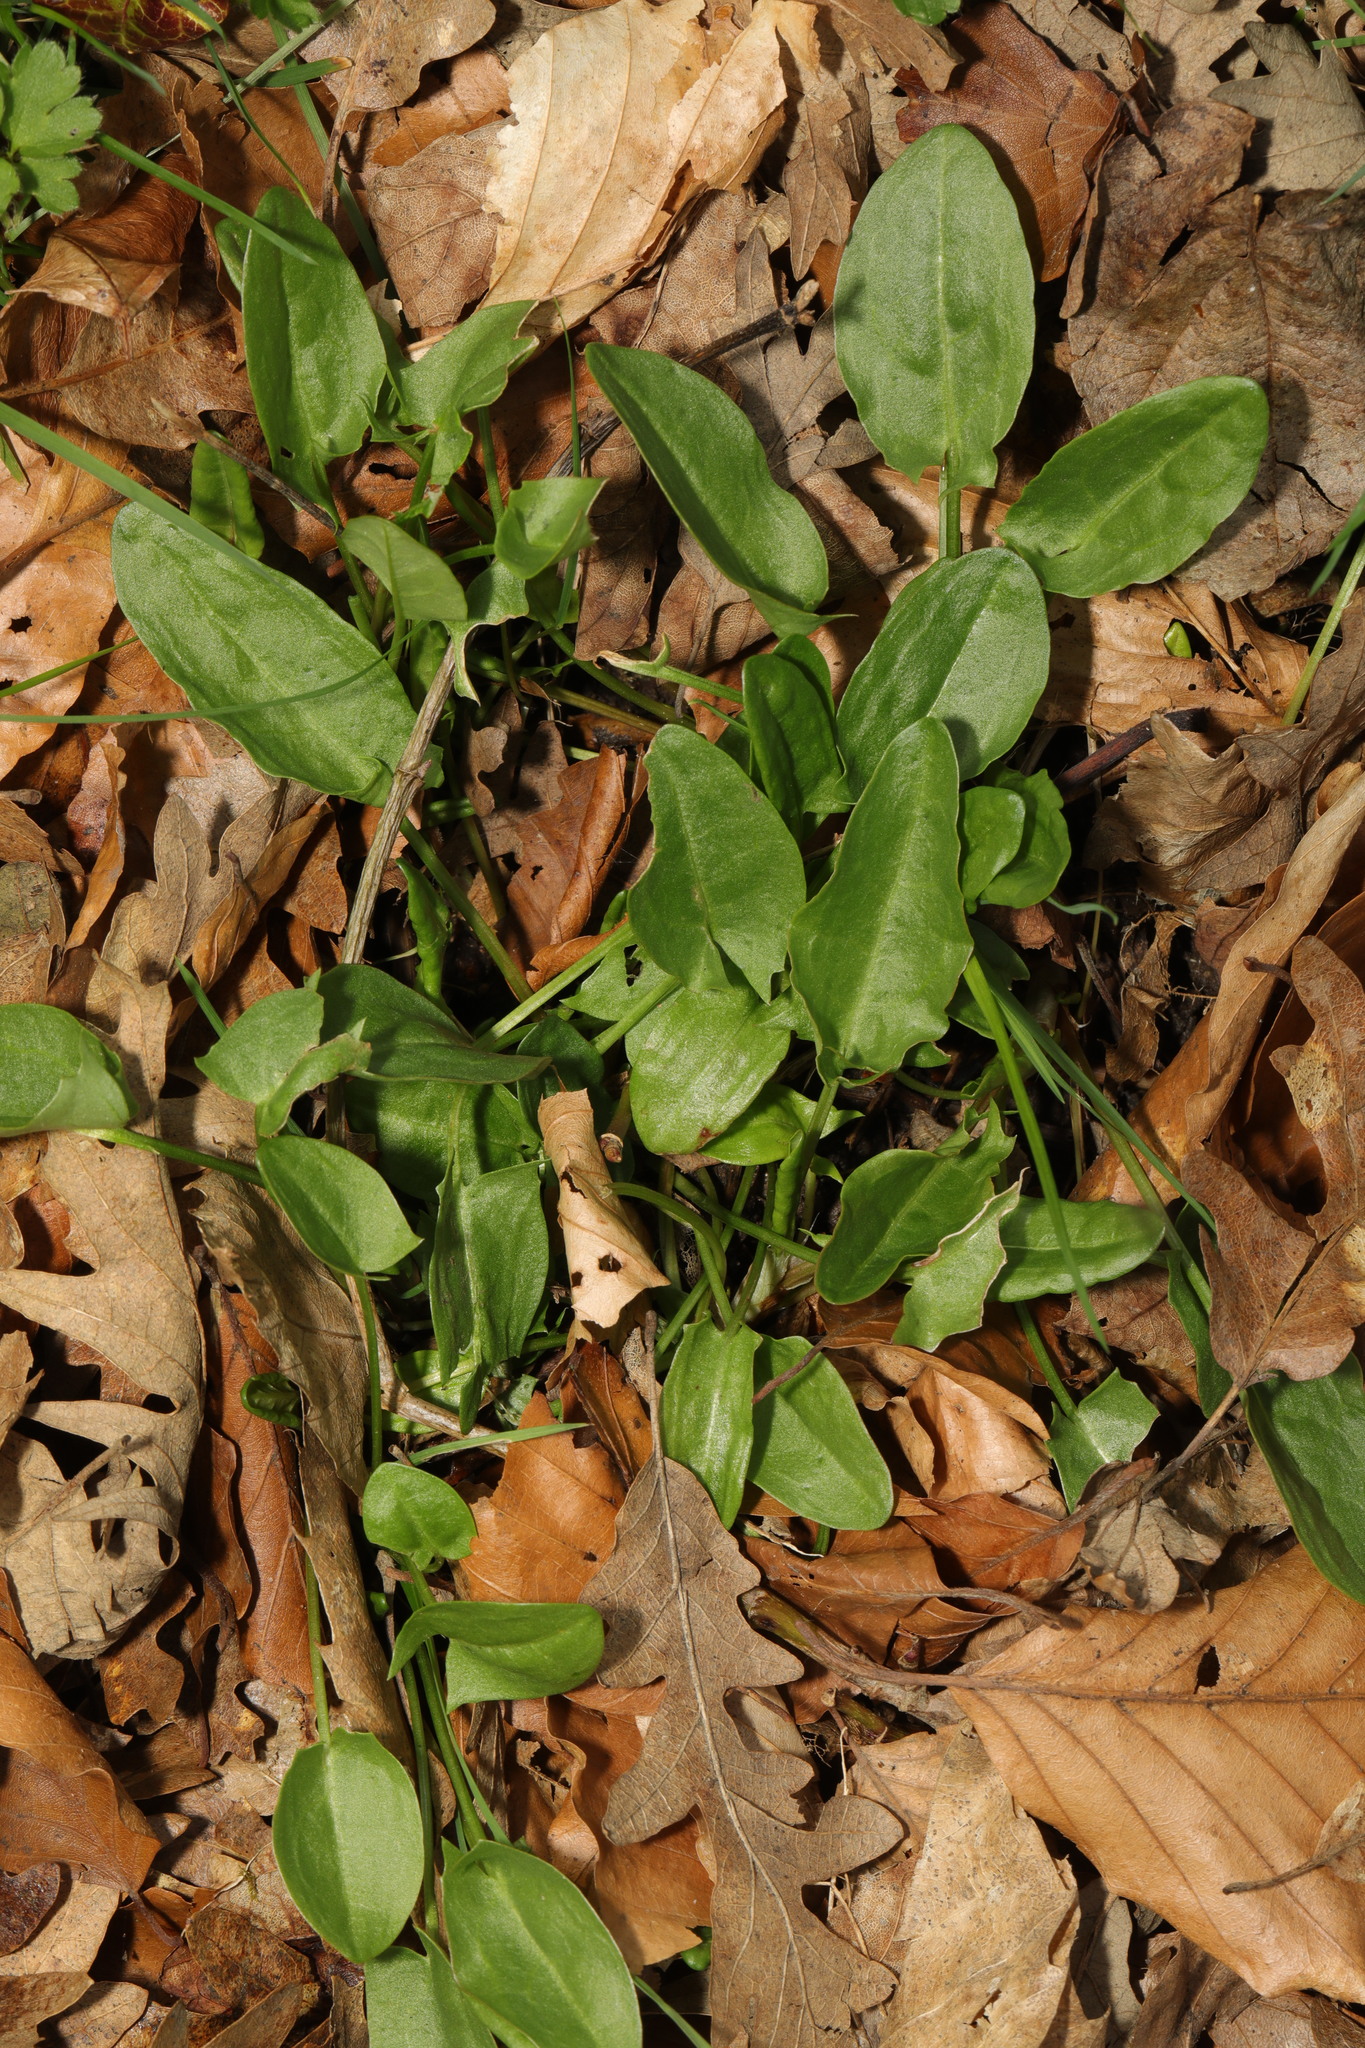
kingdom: Plantae
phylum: Tracheophyta
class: Magnoliopsida
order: Caryophyllales
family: Polygonaceae
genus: Rumex
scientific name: Rumex acetosa
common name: Garden sorrel
